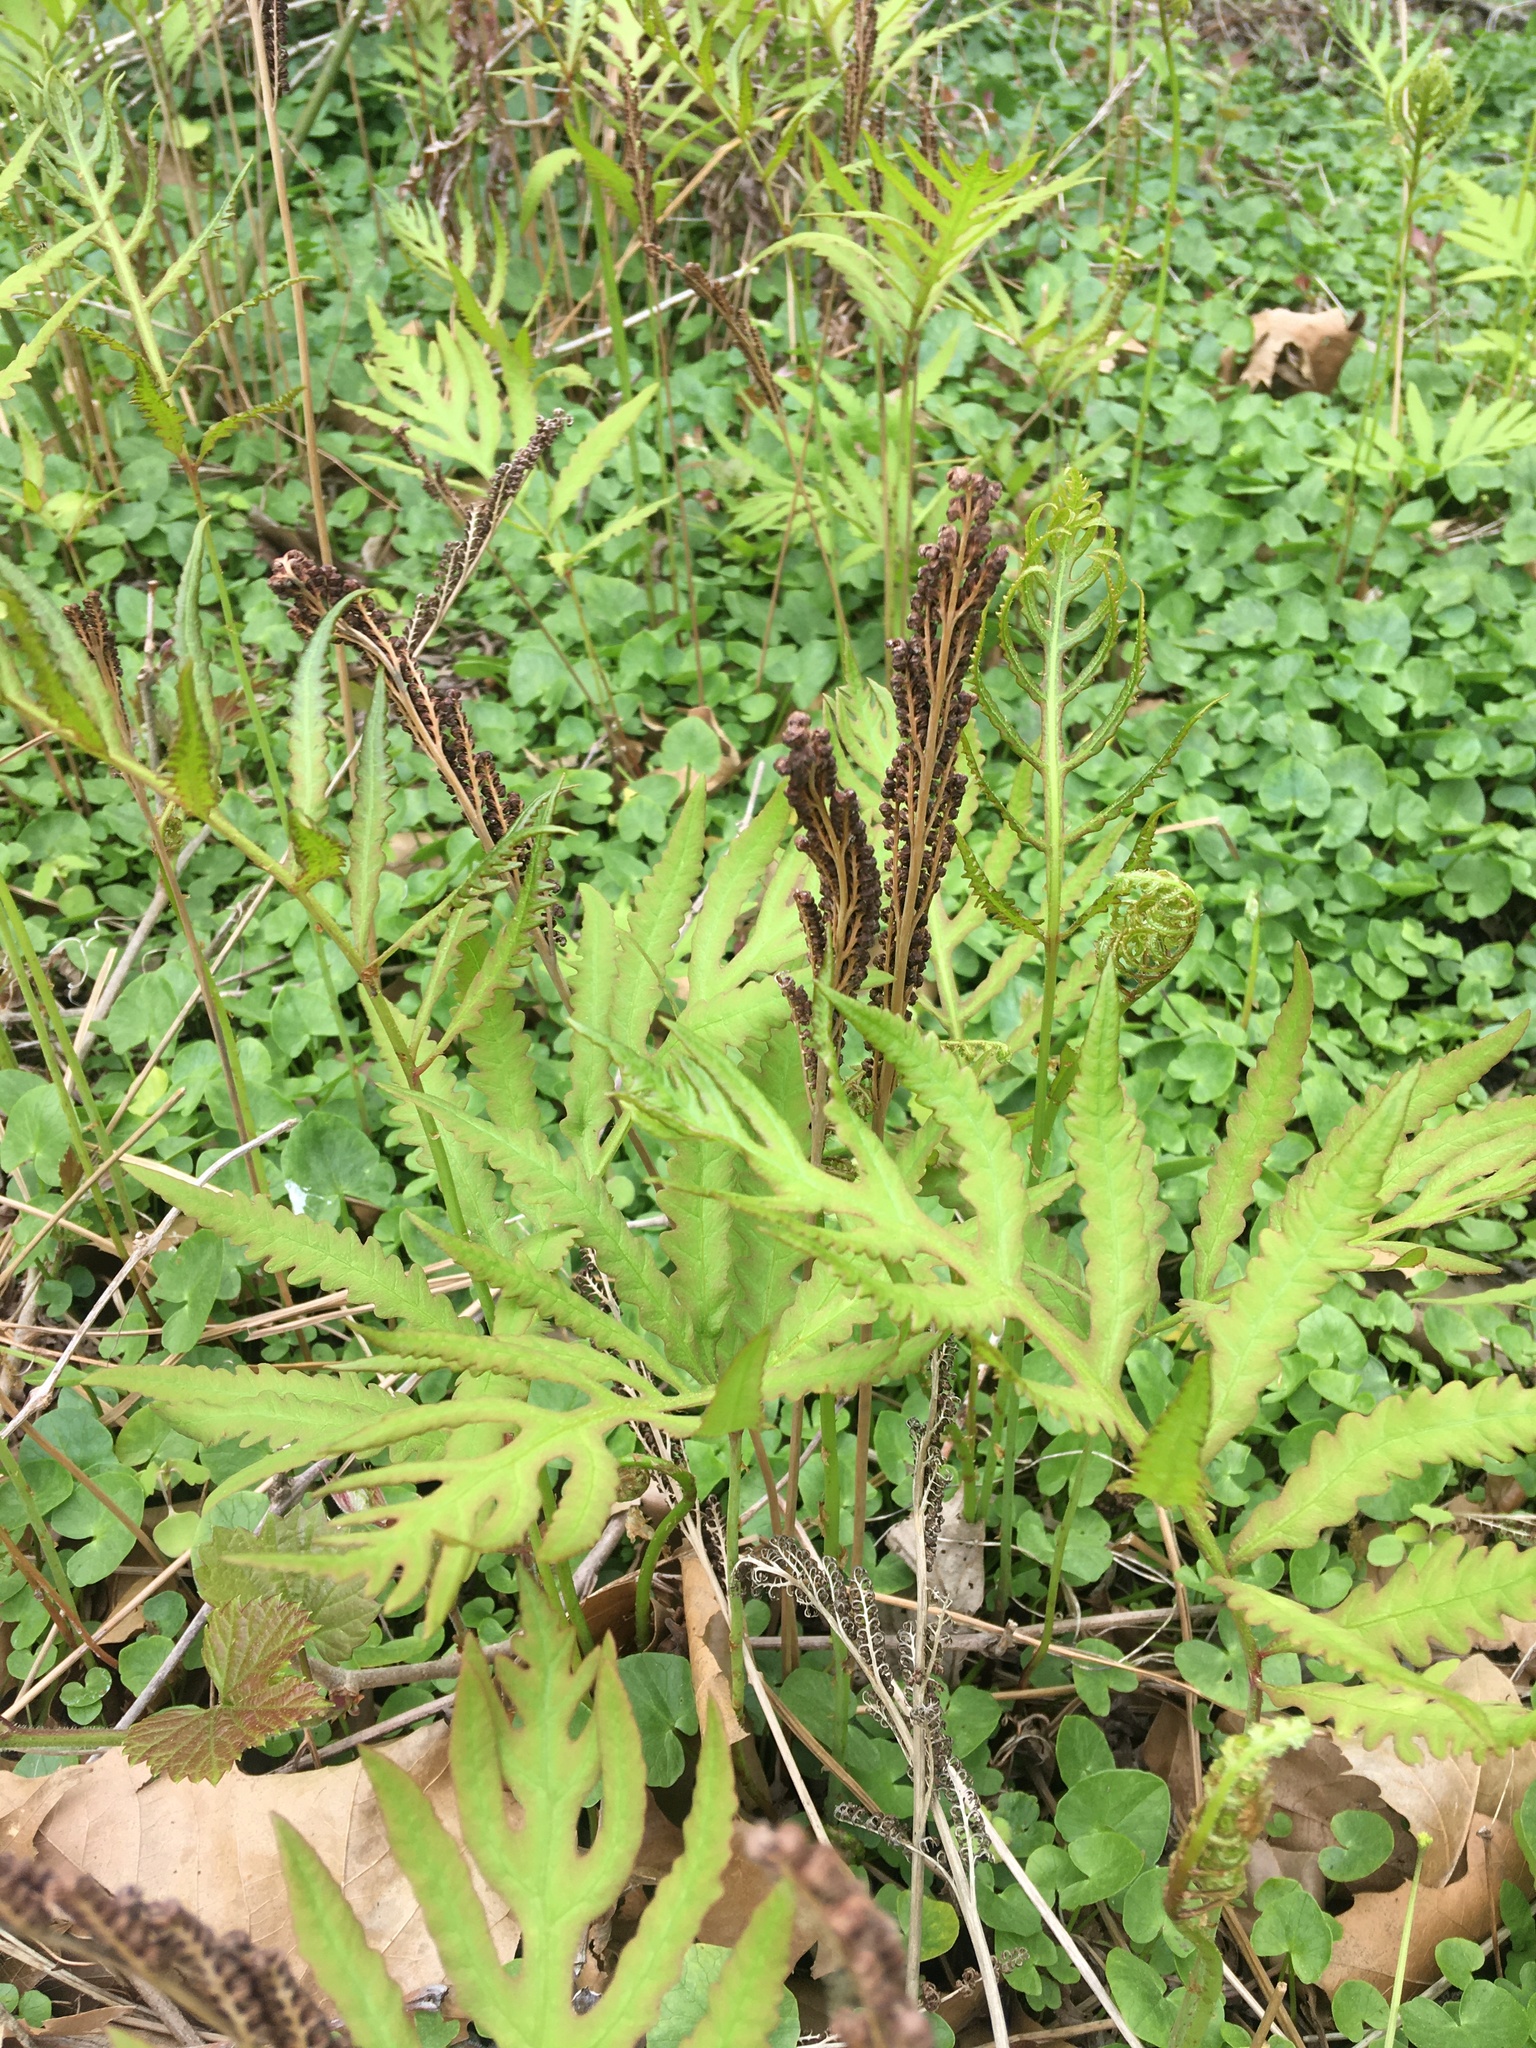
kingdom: Plantae
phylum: Tracheophyta
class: Polypodiopsida
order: Polypodiales
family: Onocleaceae
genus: Onoclea
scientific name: Onoclea sensibilis
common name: Sensitive fern
